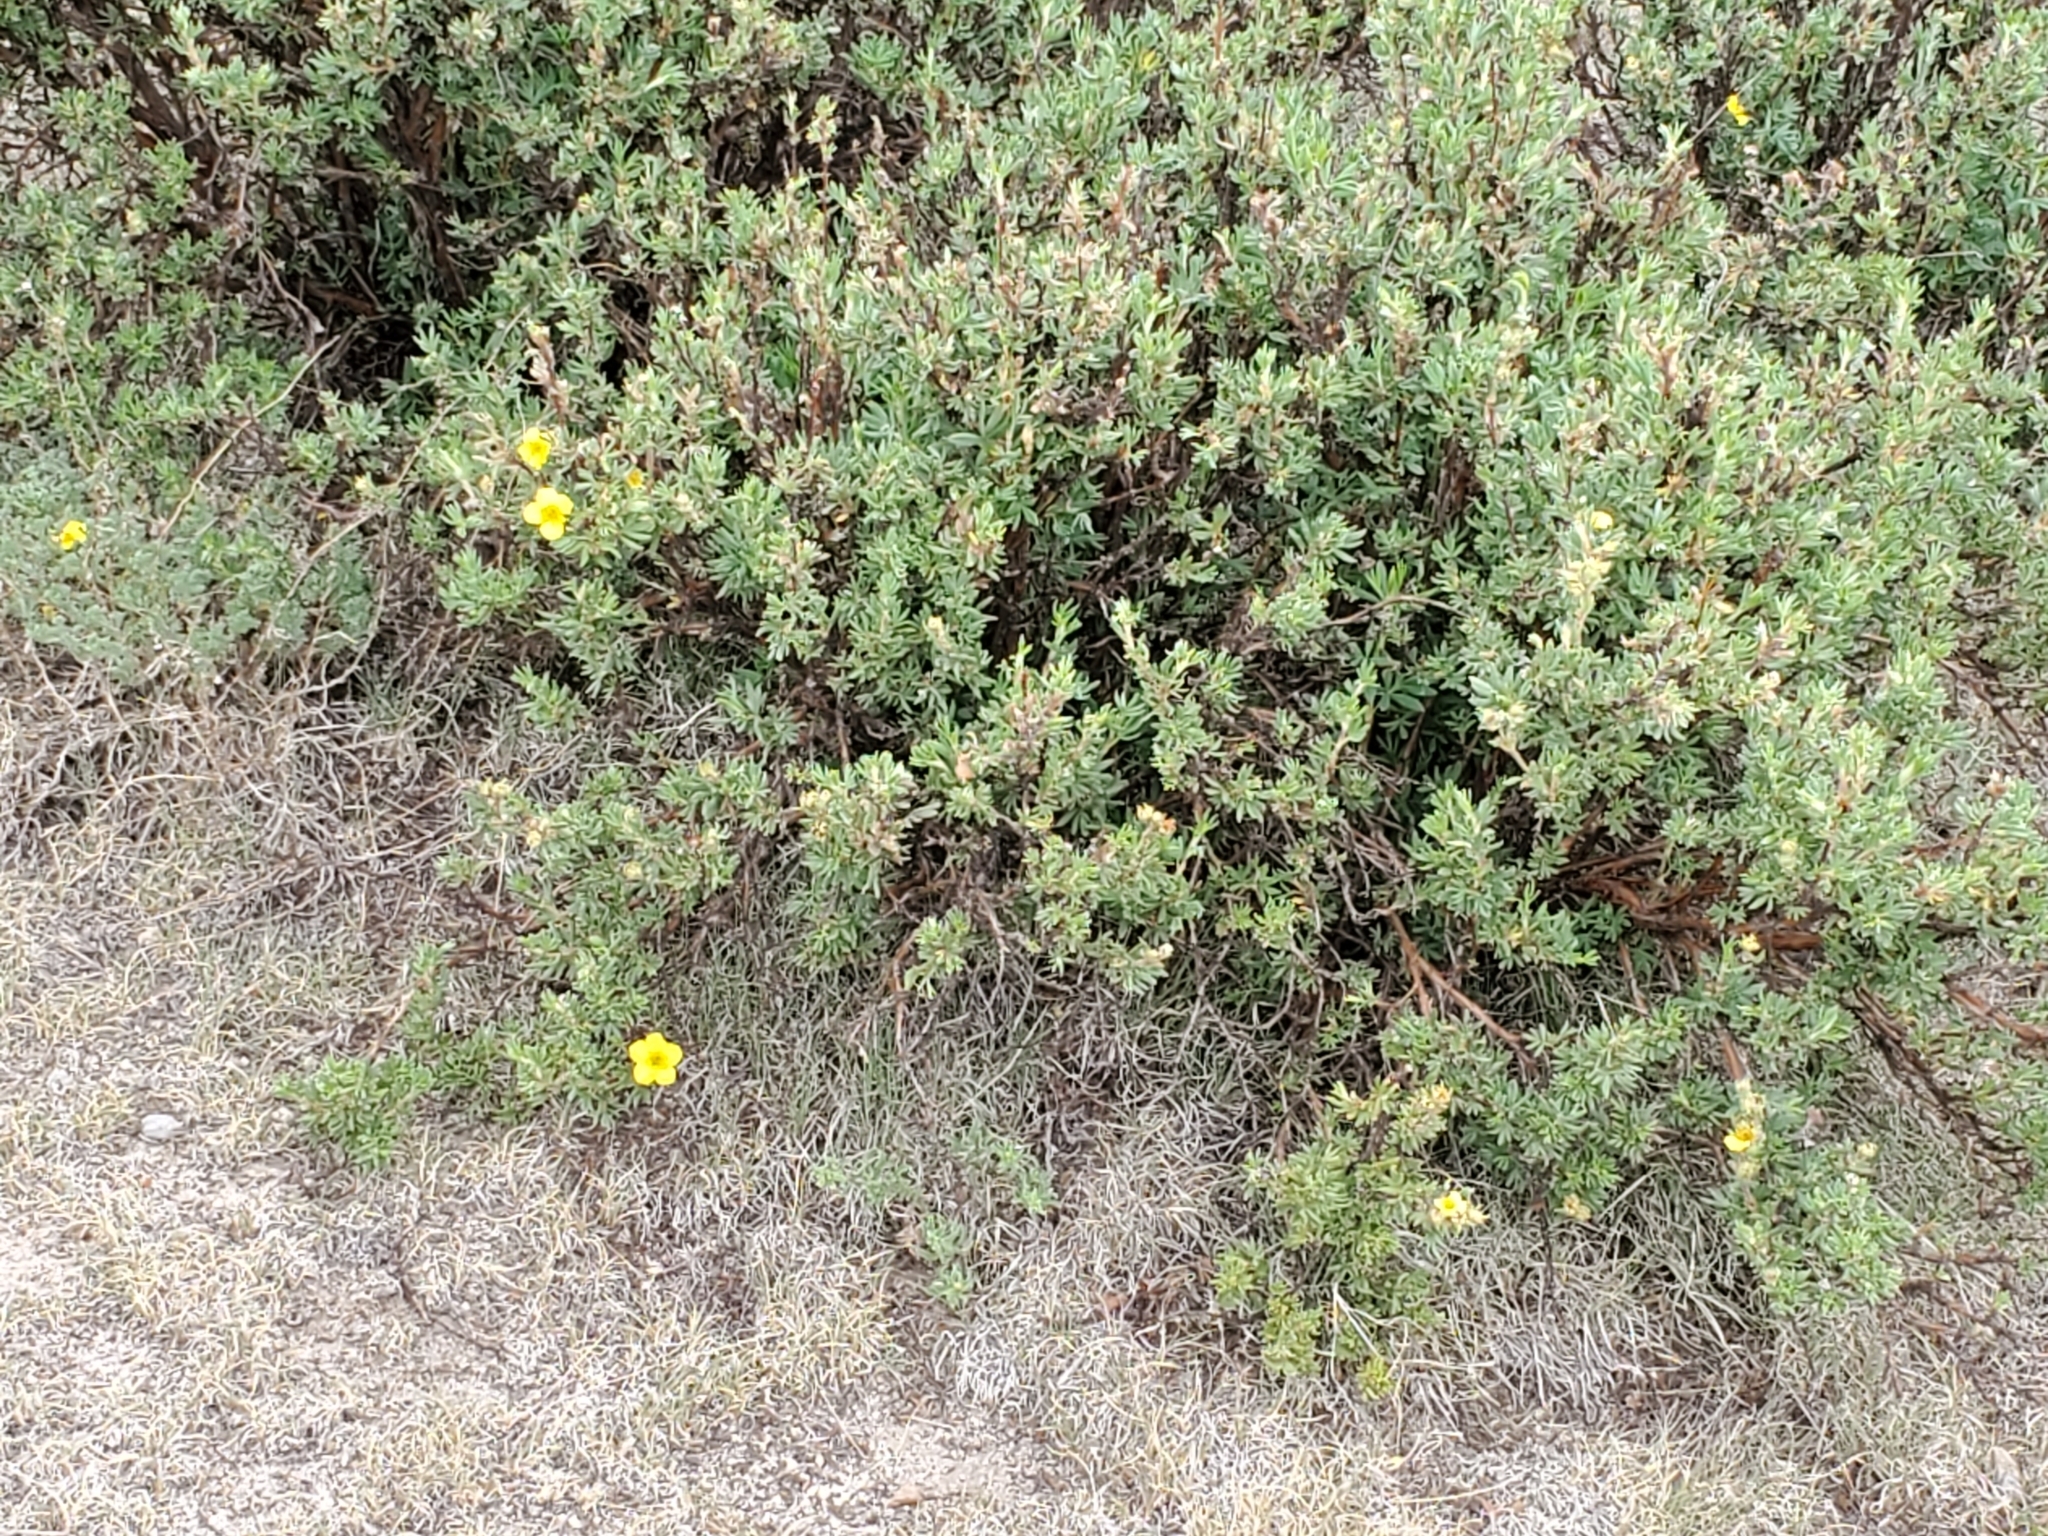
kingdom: Plantae
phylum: Tracheophyta
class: Magnoliopsida
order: Rosales
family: Rosaceae
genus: Dasiphora
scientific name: Dasiphora fruticosa
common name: Shrubby cinquefoil
